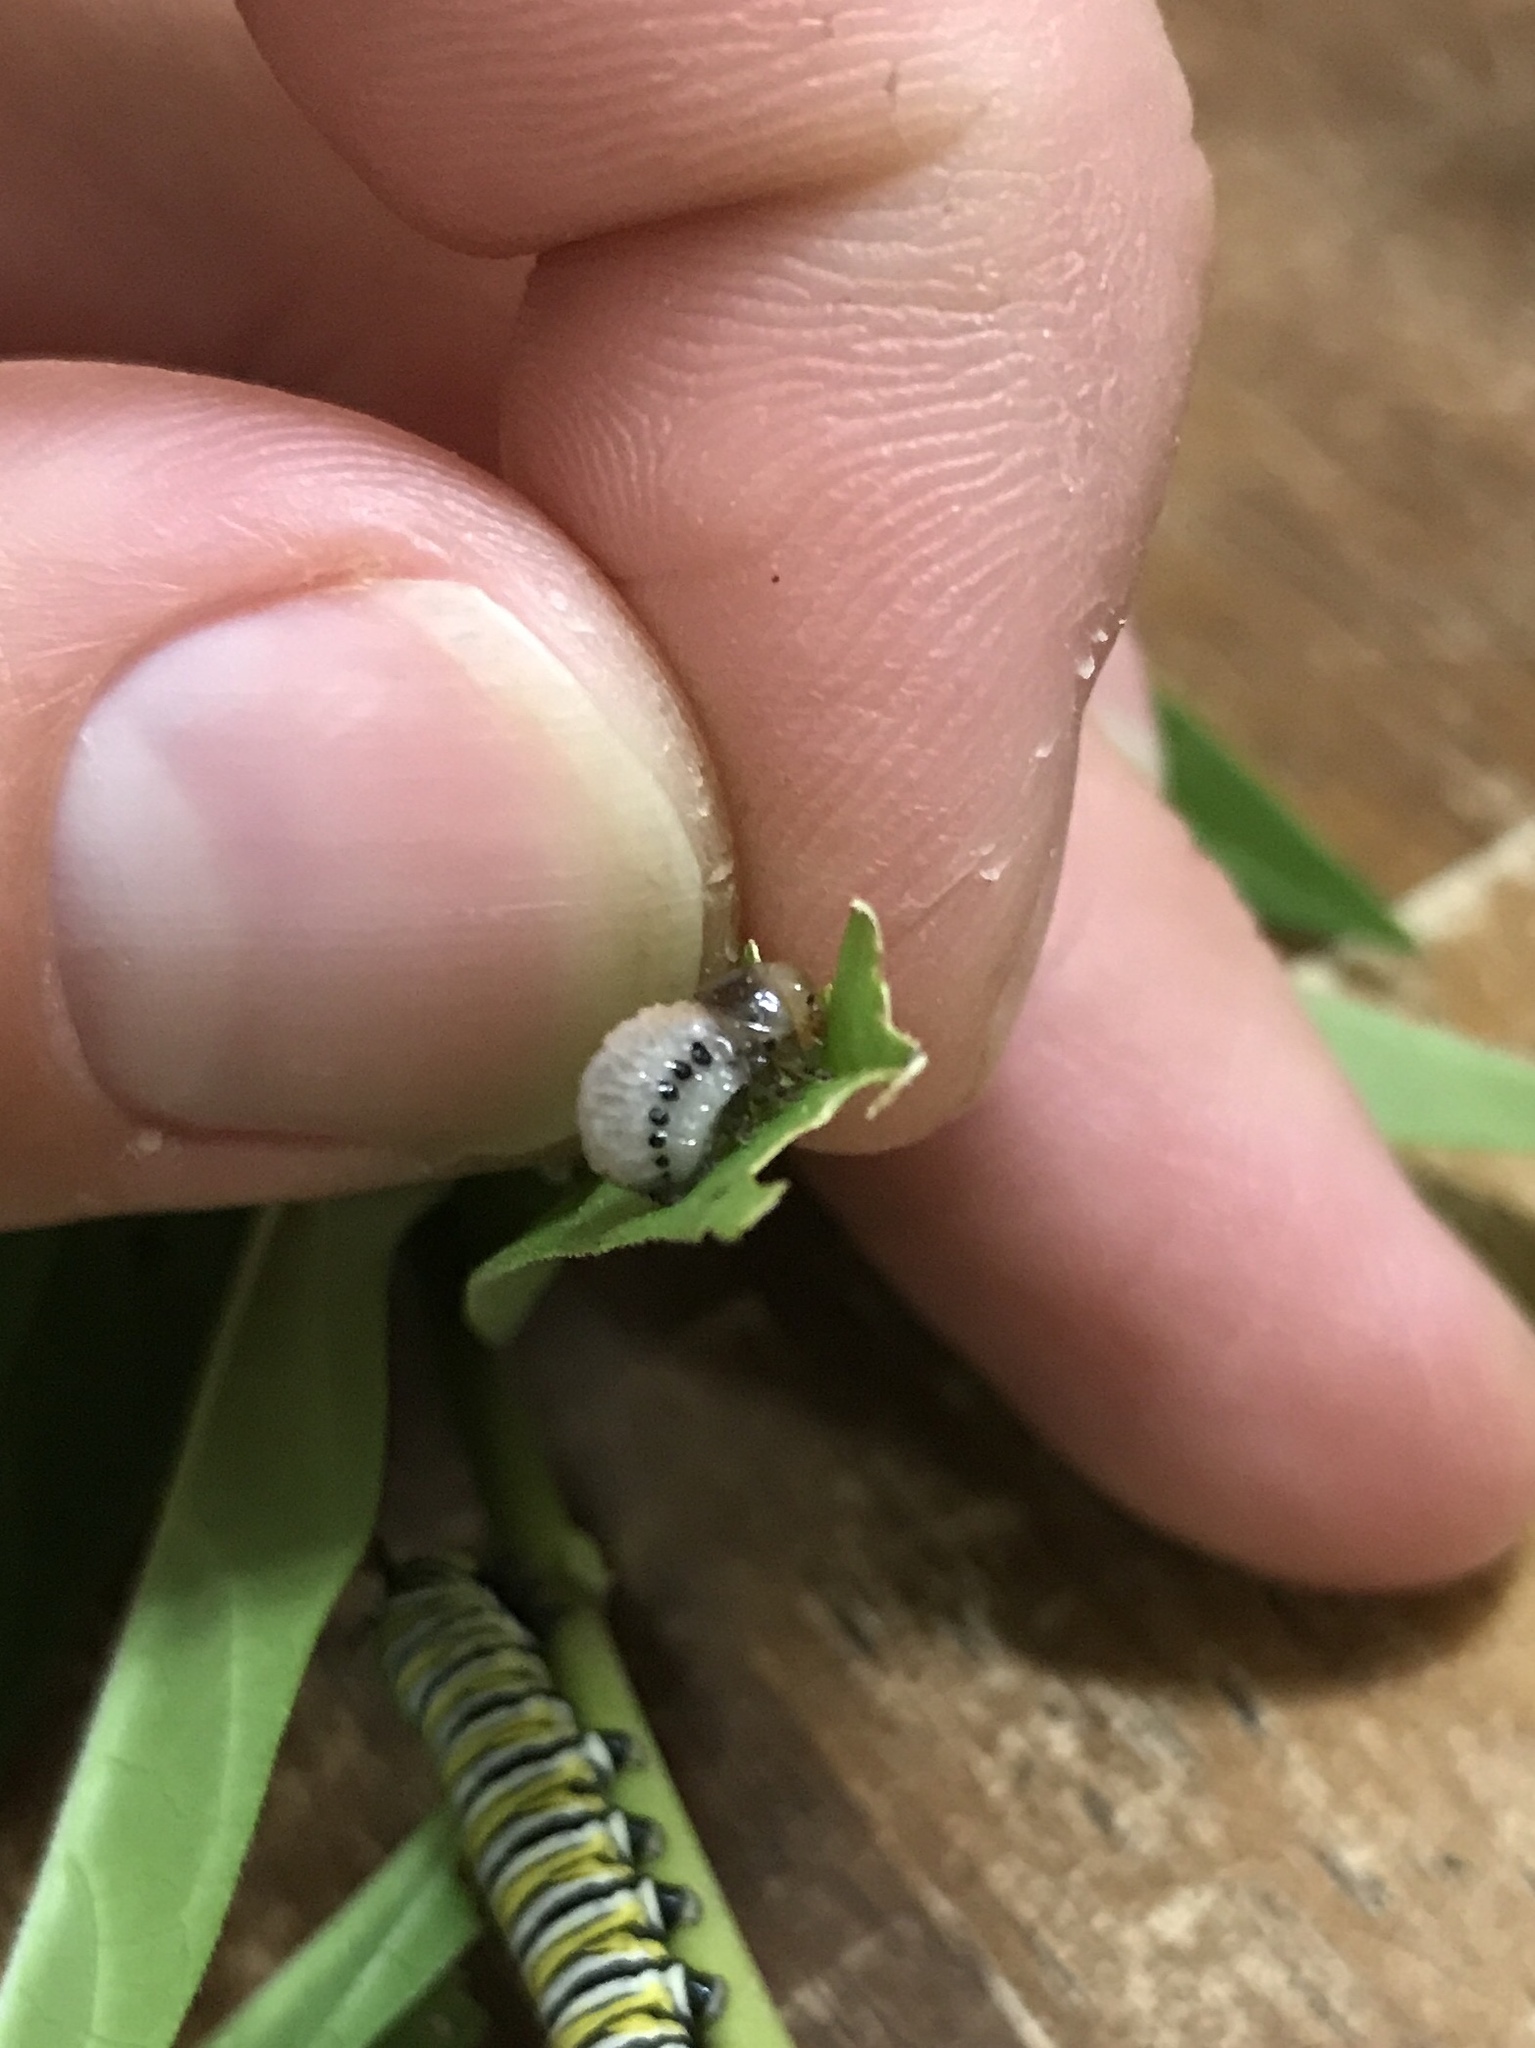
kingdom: Animalia
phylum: Arthropoda
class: Insecta
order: Coleoptera
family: Chrysomelidae
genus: Labidomera
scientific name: Labidomera clivicollis
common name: Swamp milkweed leaf beetle
